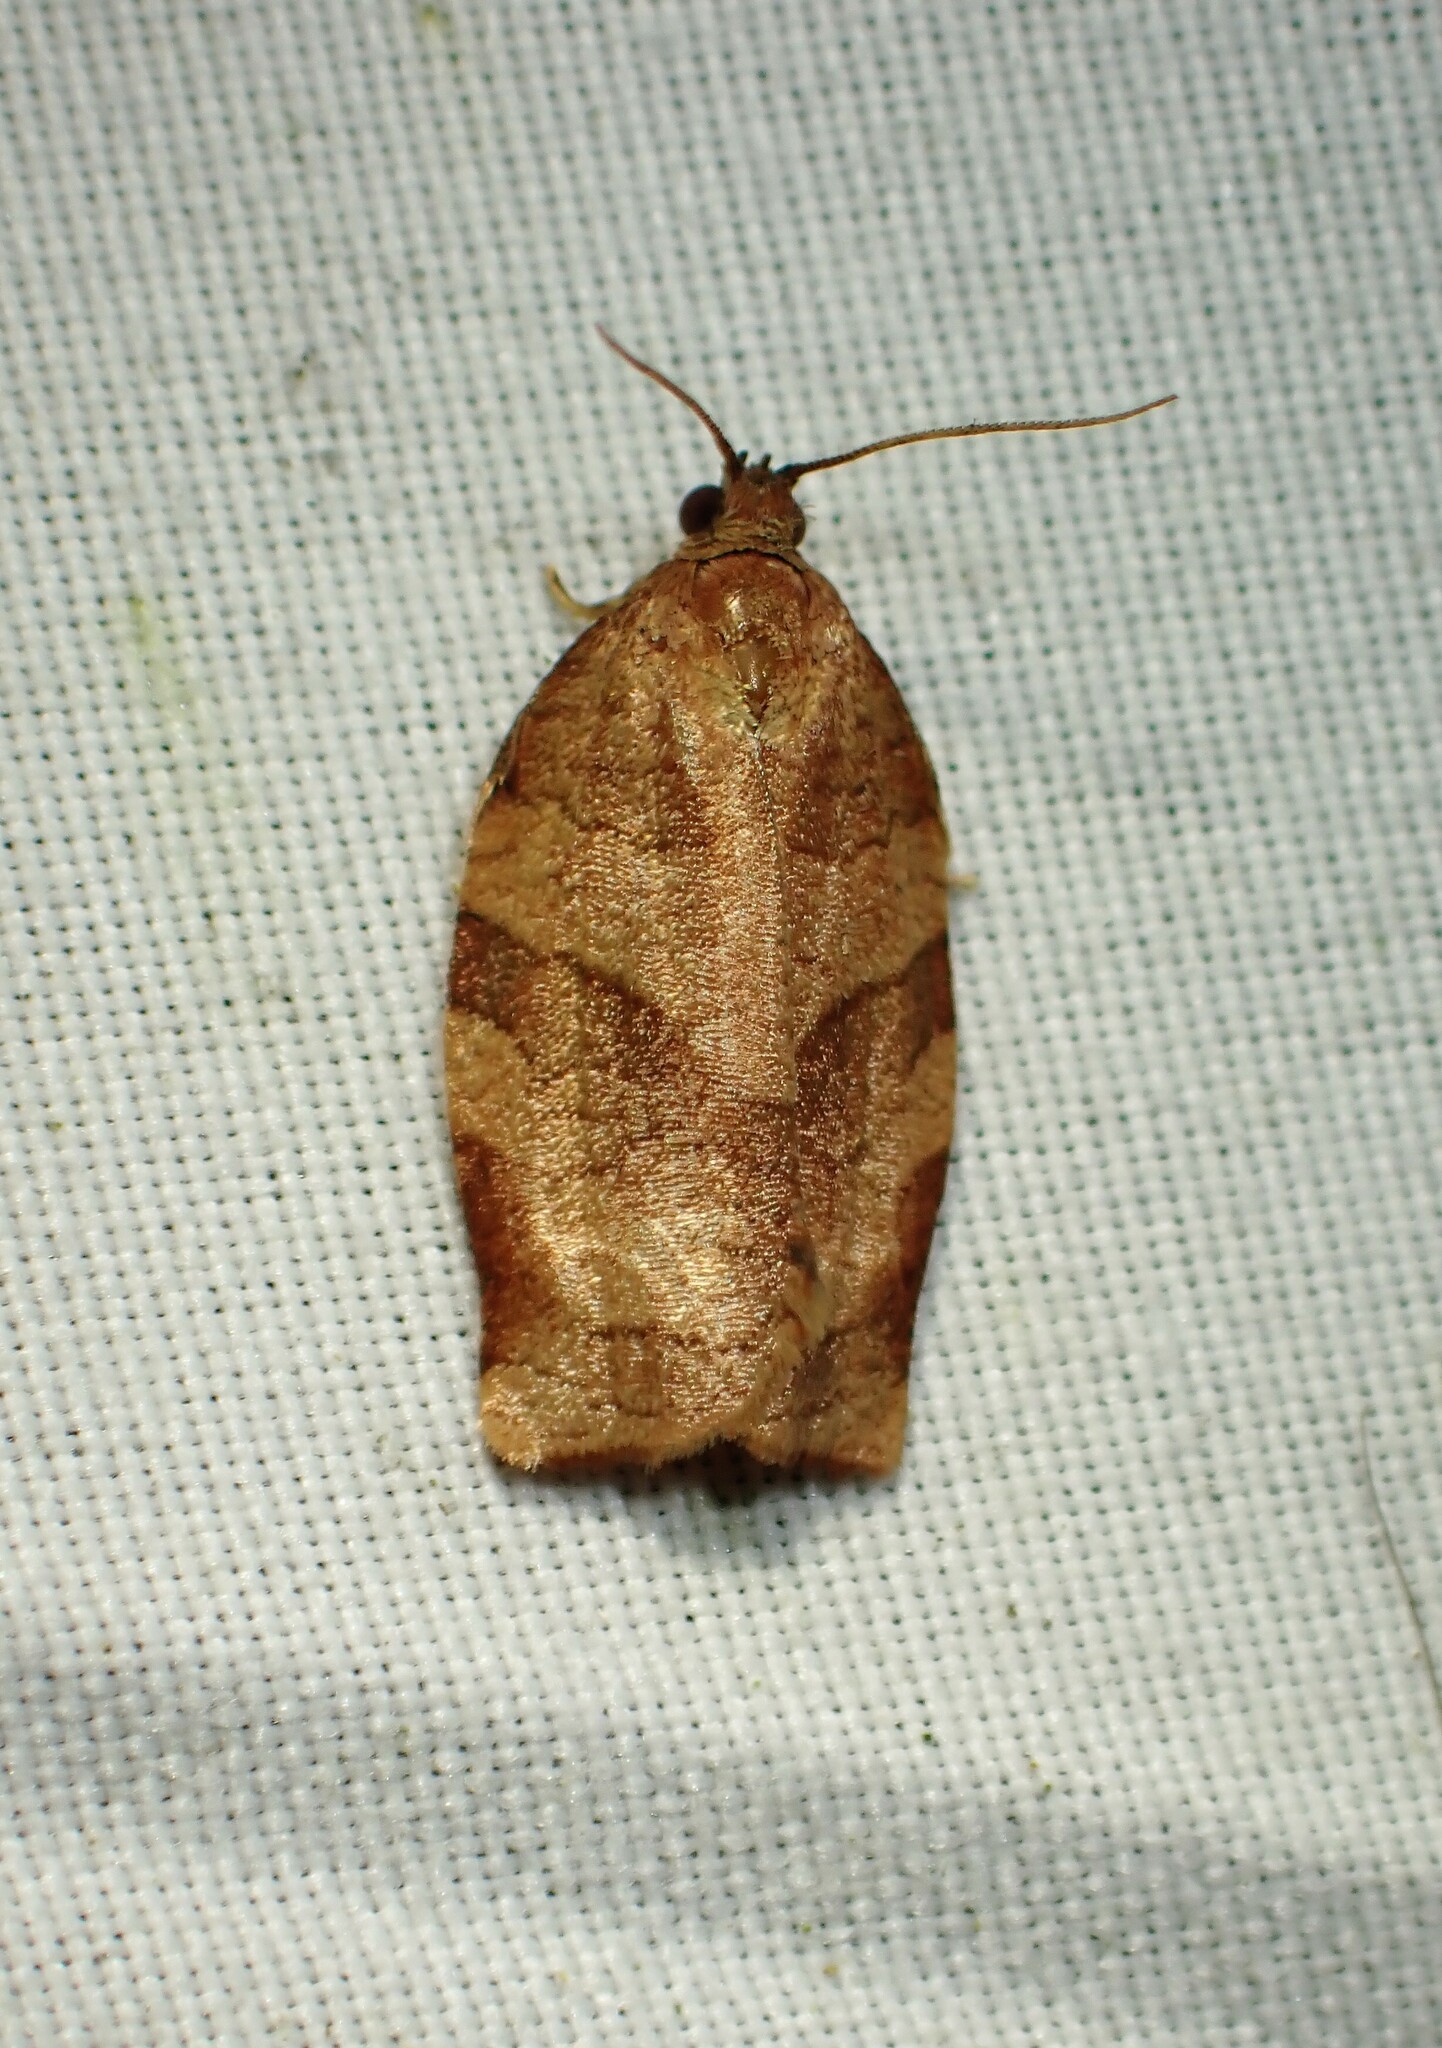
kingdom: Animalia
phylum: Arthropoda
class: Insecta
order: Lepidoptera
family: Tortricidae
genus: Choristoneura
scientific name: Choristoneura rosaceana
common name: Oblique-banded leafroller moth
